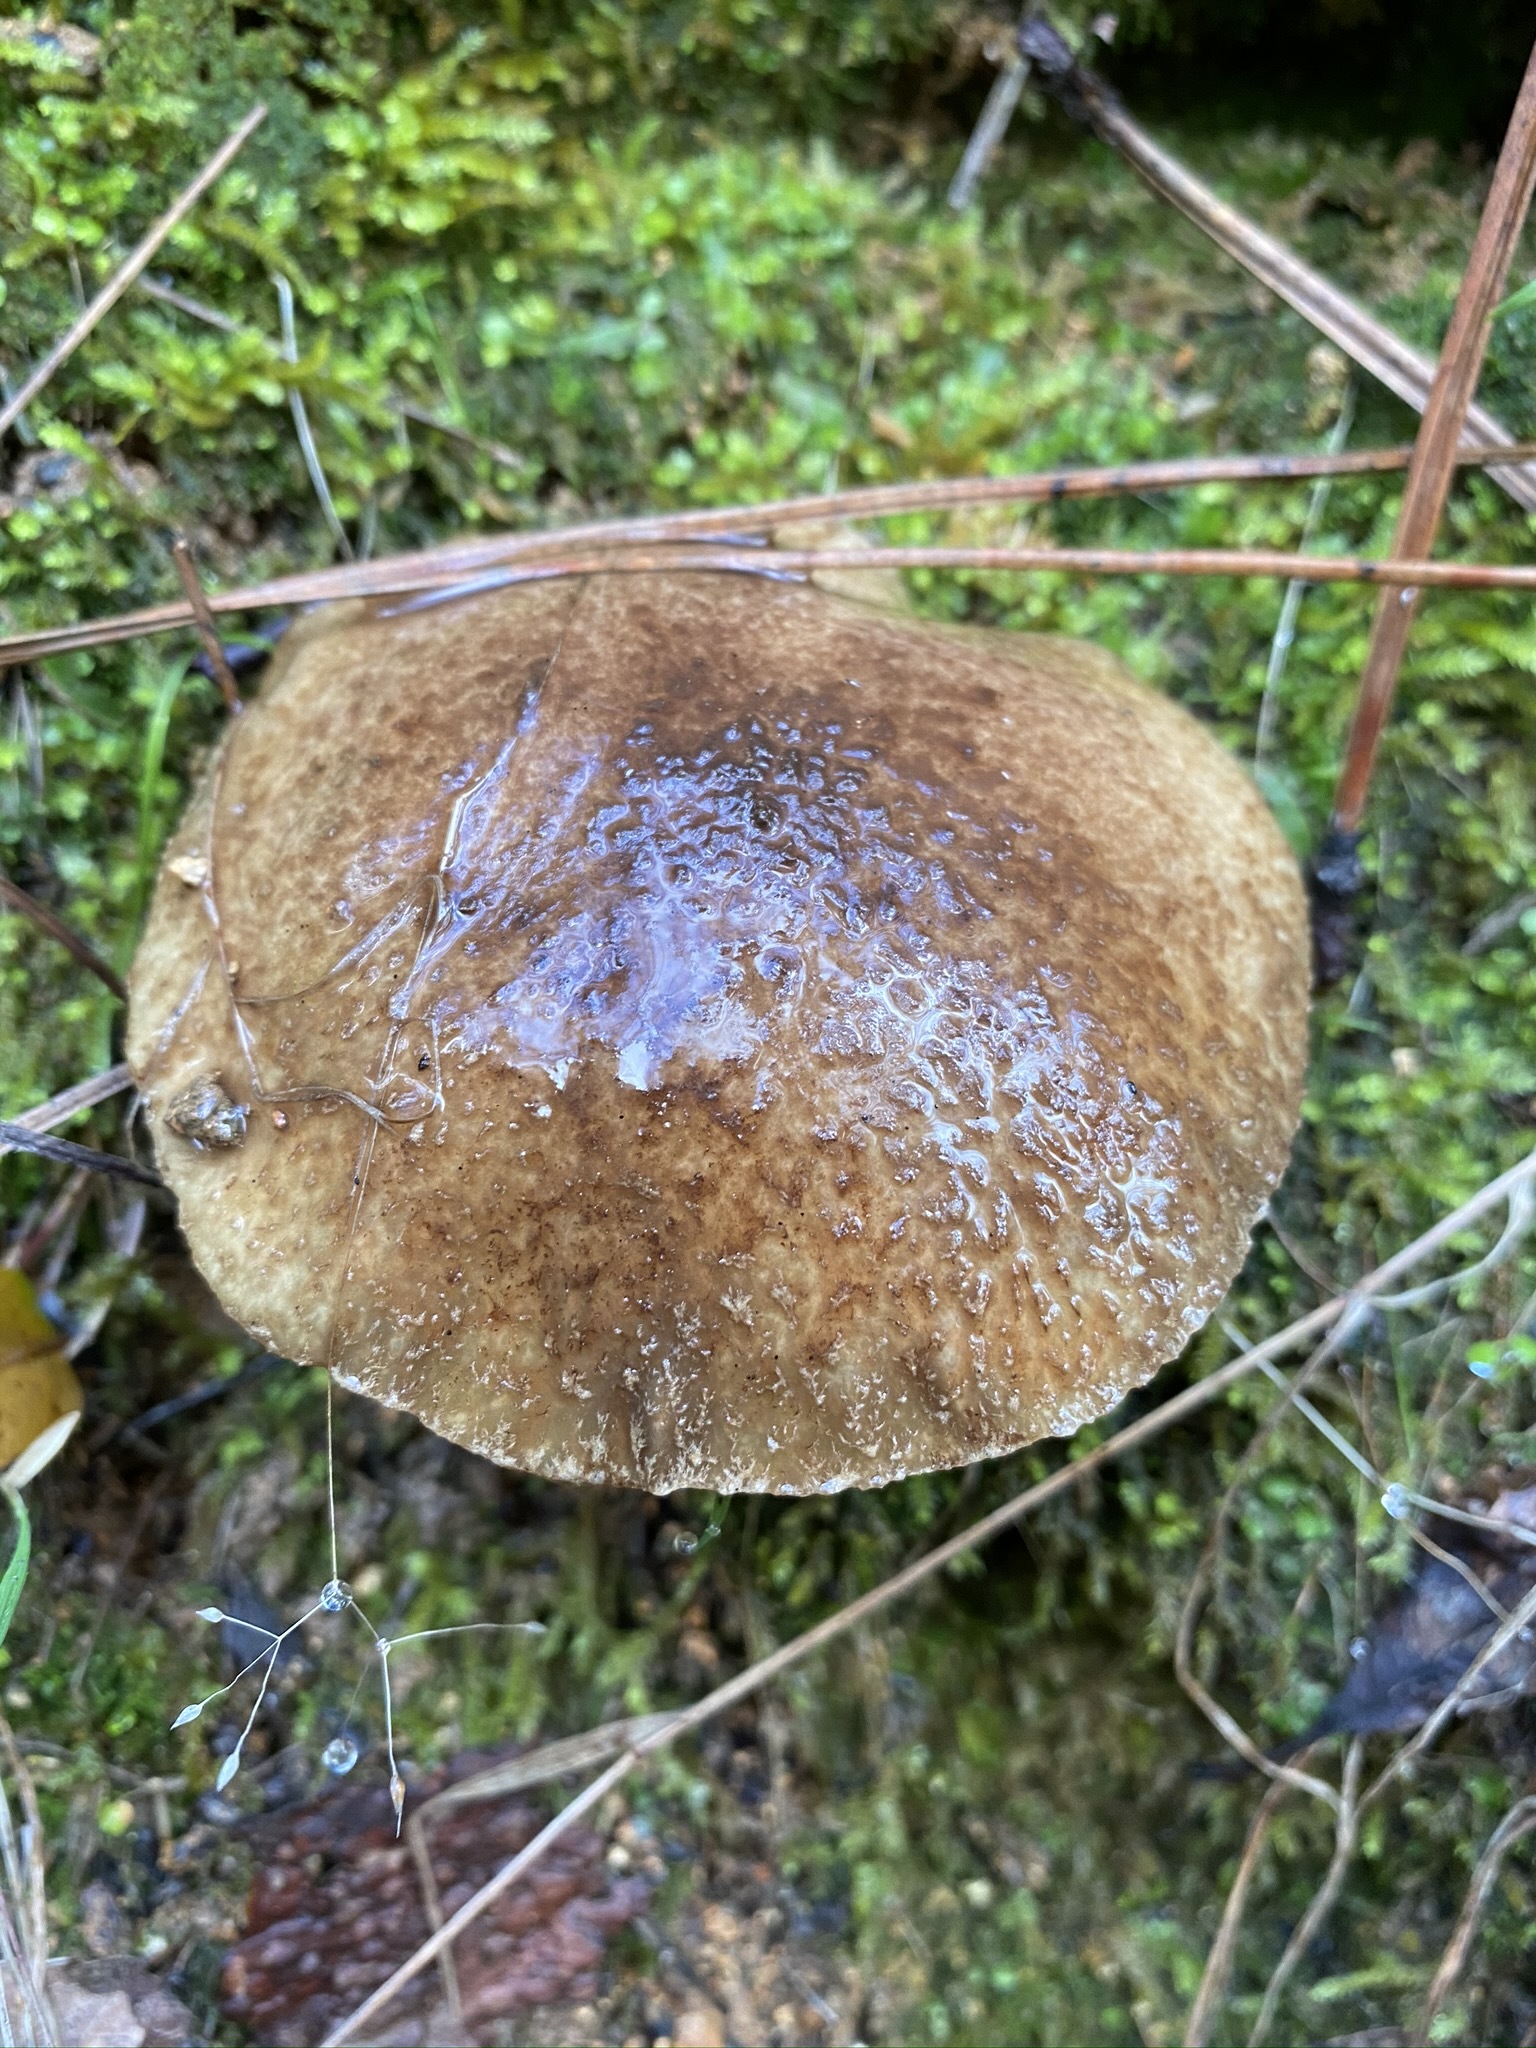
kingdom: Fungi
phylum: Basidiomycota
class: Agaricomycetes
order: Boletales
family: Suillaceae
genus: Suillus
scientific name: Suillus fuscotomentosus
